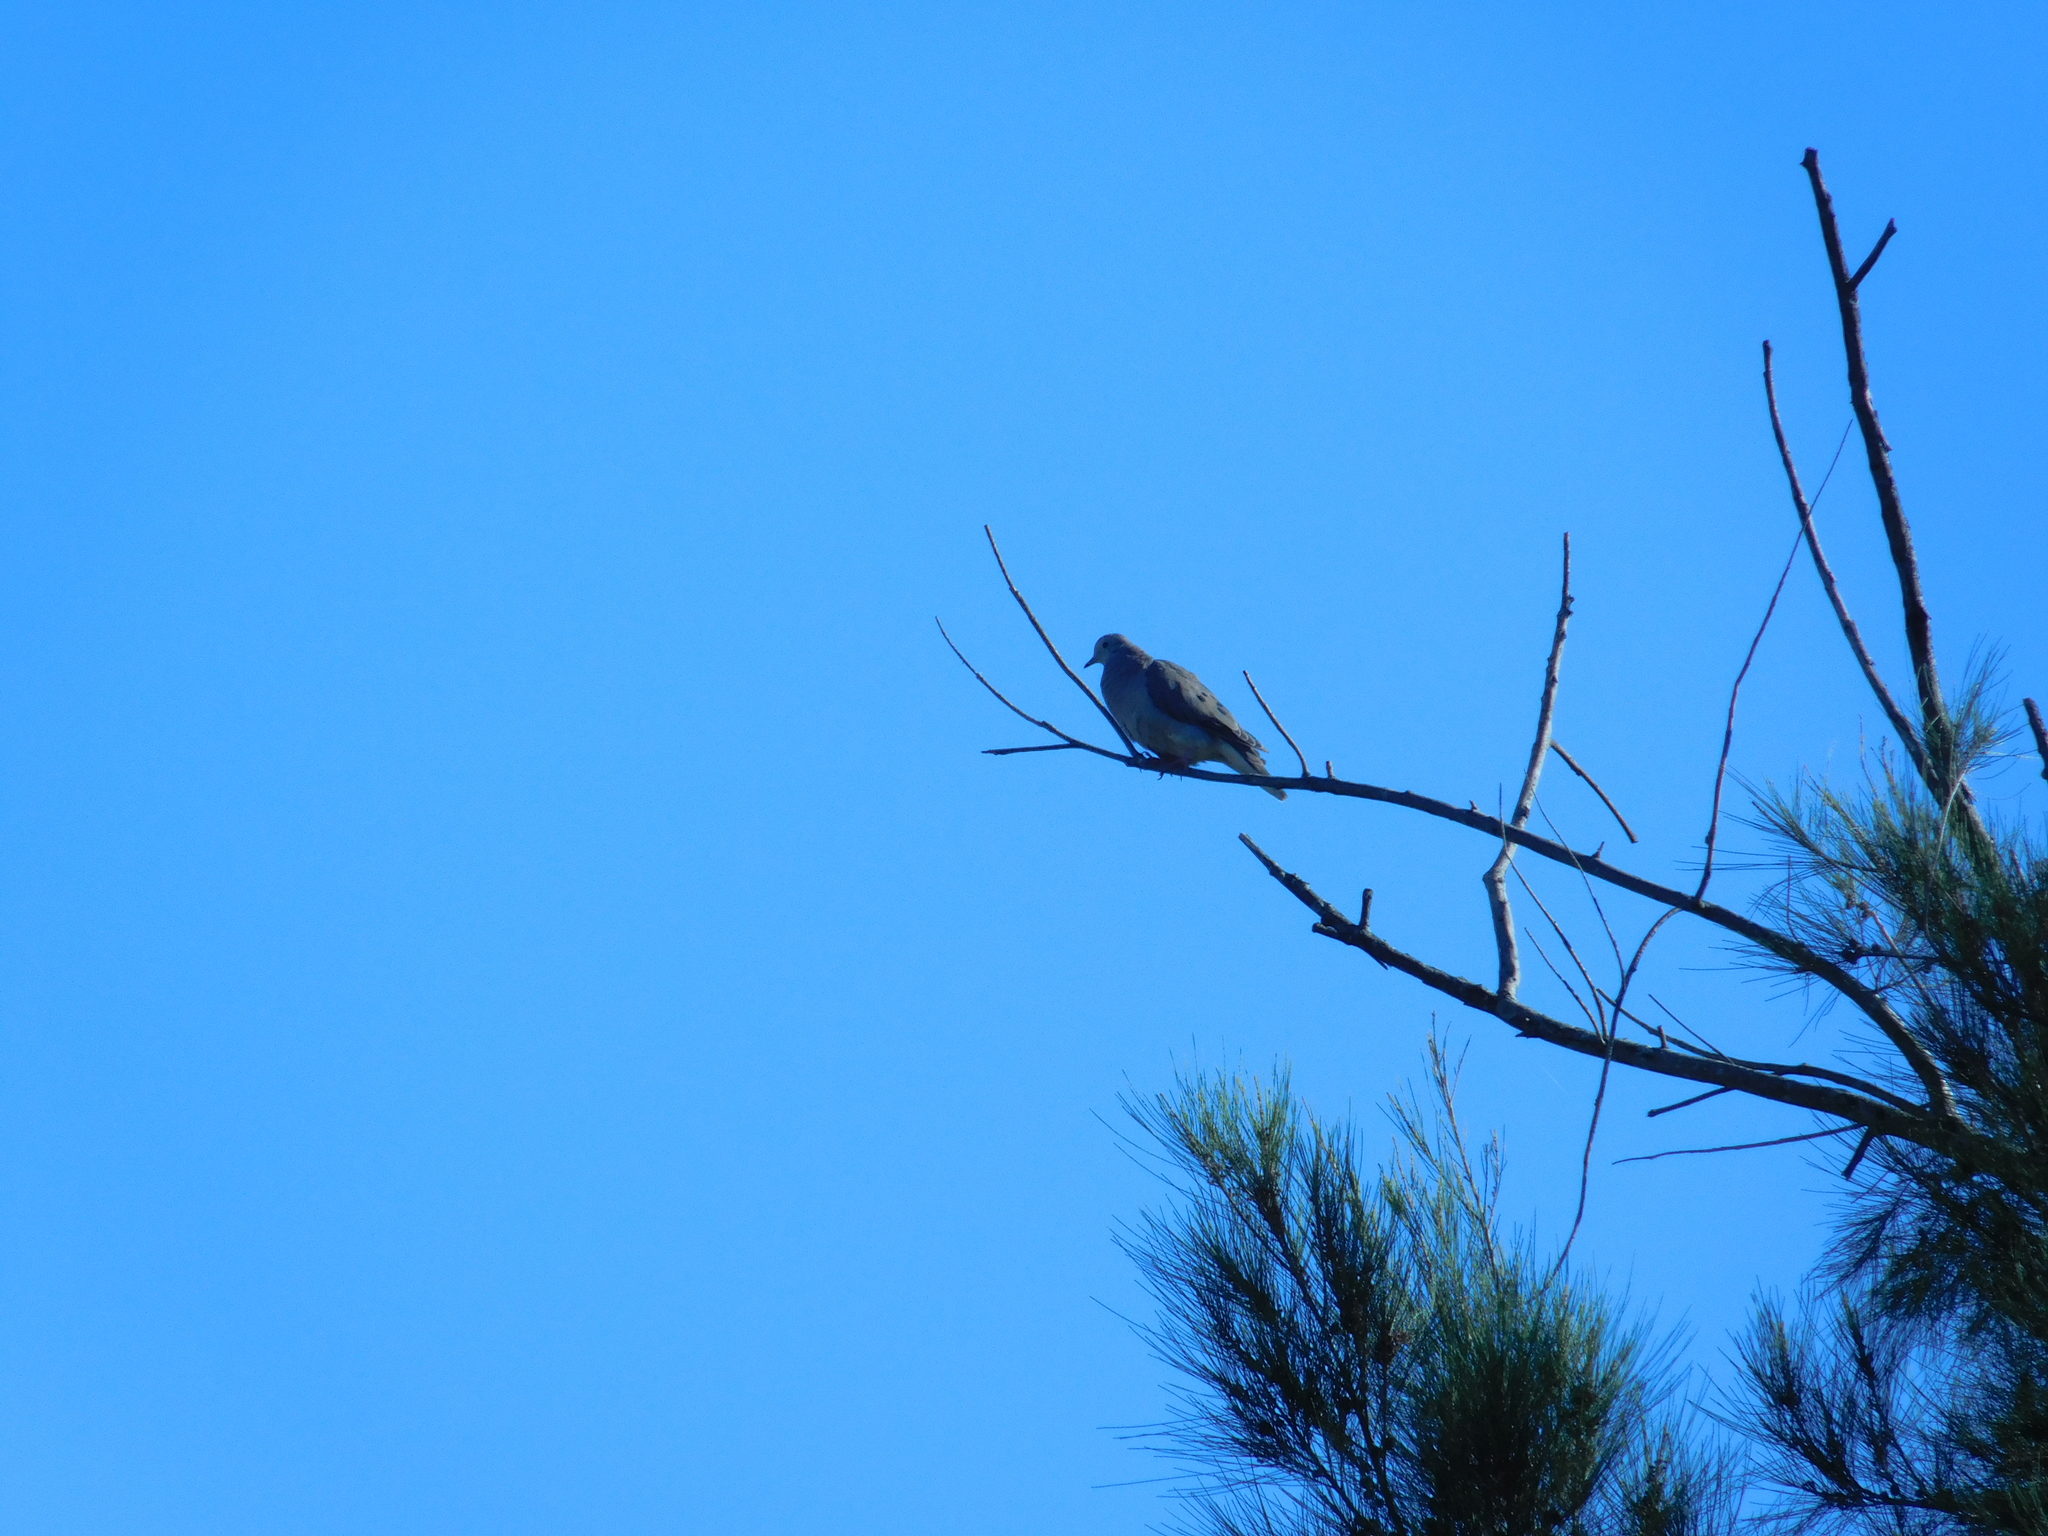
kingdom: Animalia
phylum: Chordata
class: Aves
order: Columbiformes
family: Columbidae
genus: Zenaida
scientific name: Zenaida auriculata
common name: Eared dove
